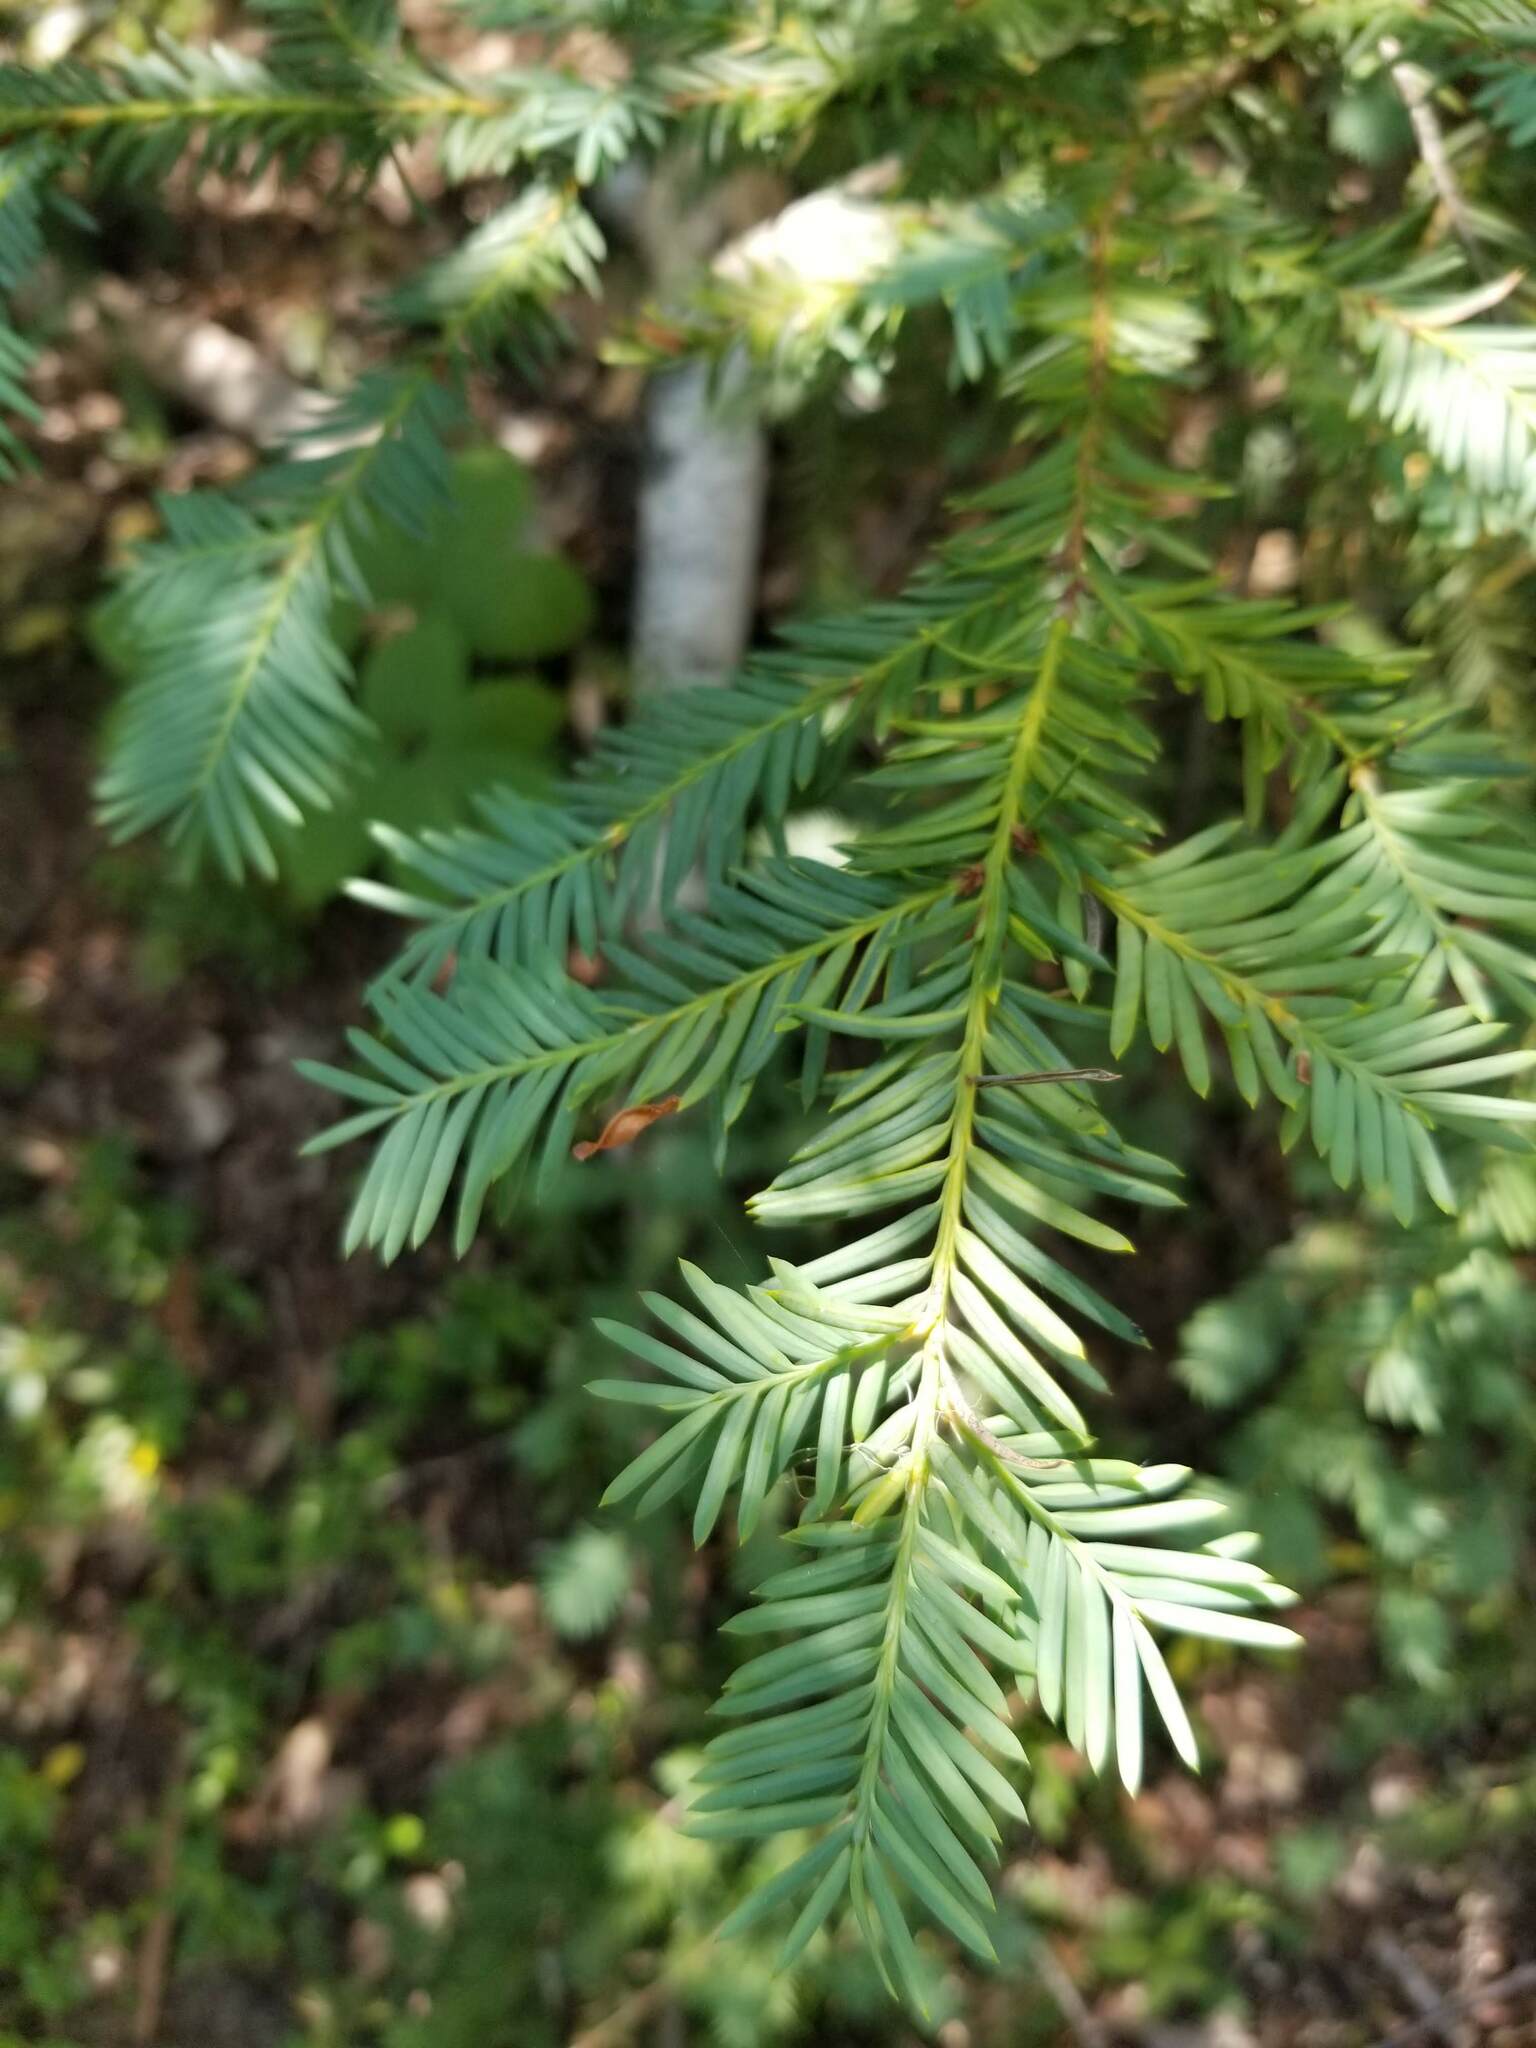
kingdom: Plantae
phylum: Tracheophyta
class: Pinopsida
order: Pinales
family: Taxaceae
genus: Taxus
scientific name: Taxus brevifolia
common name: Pacific yew
